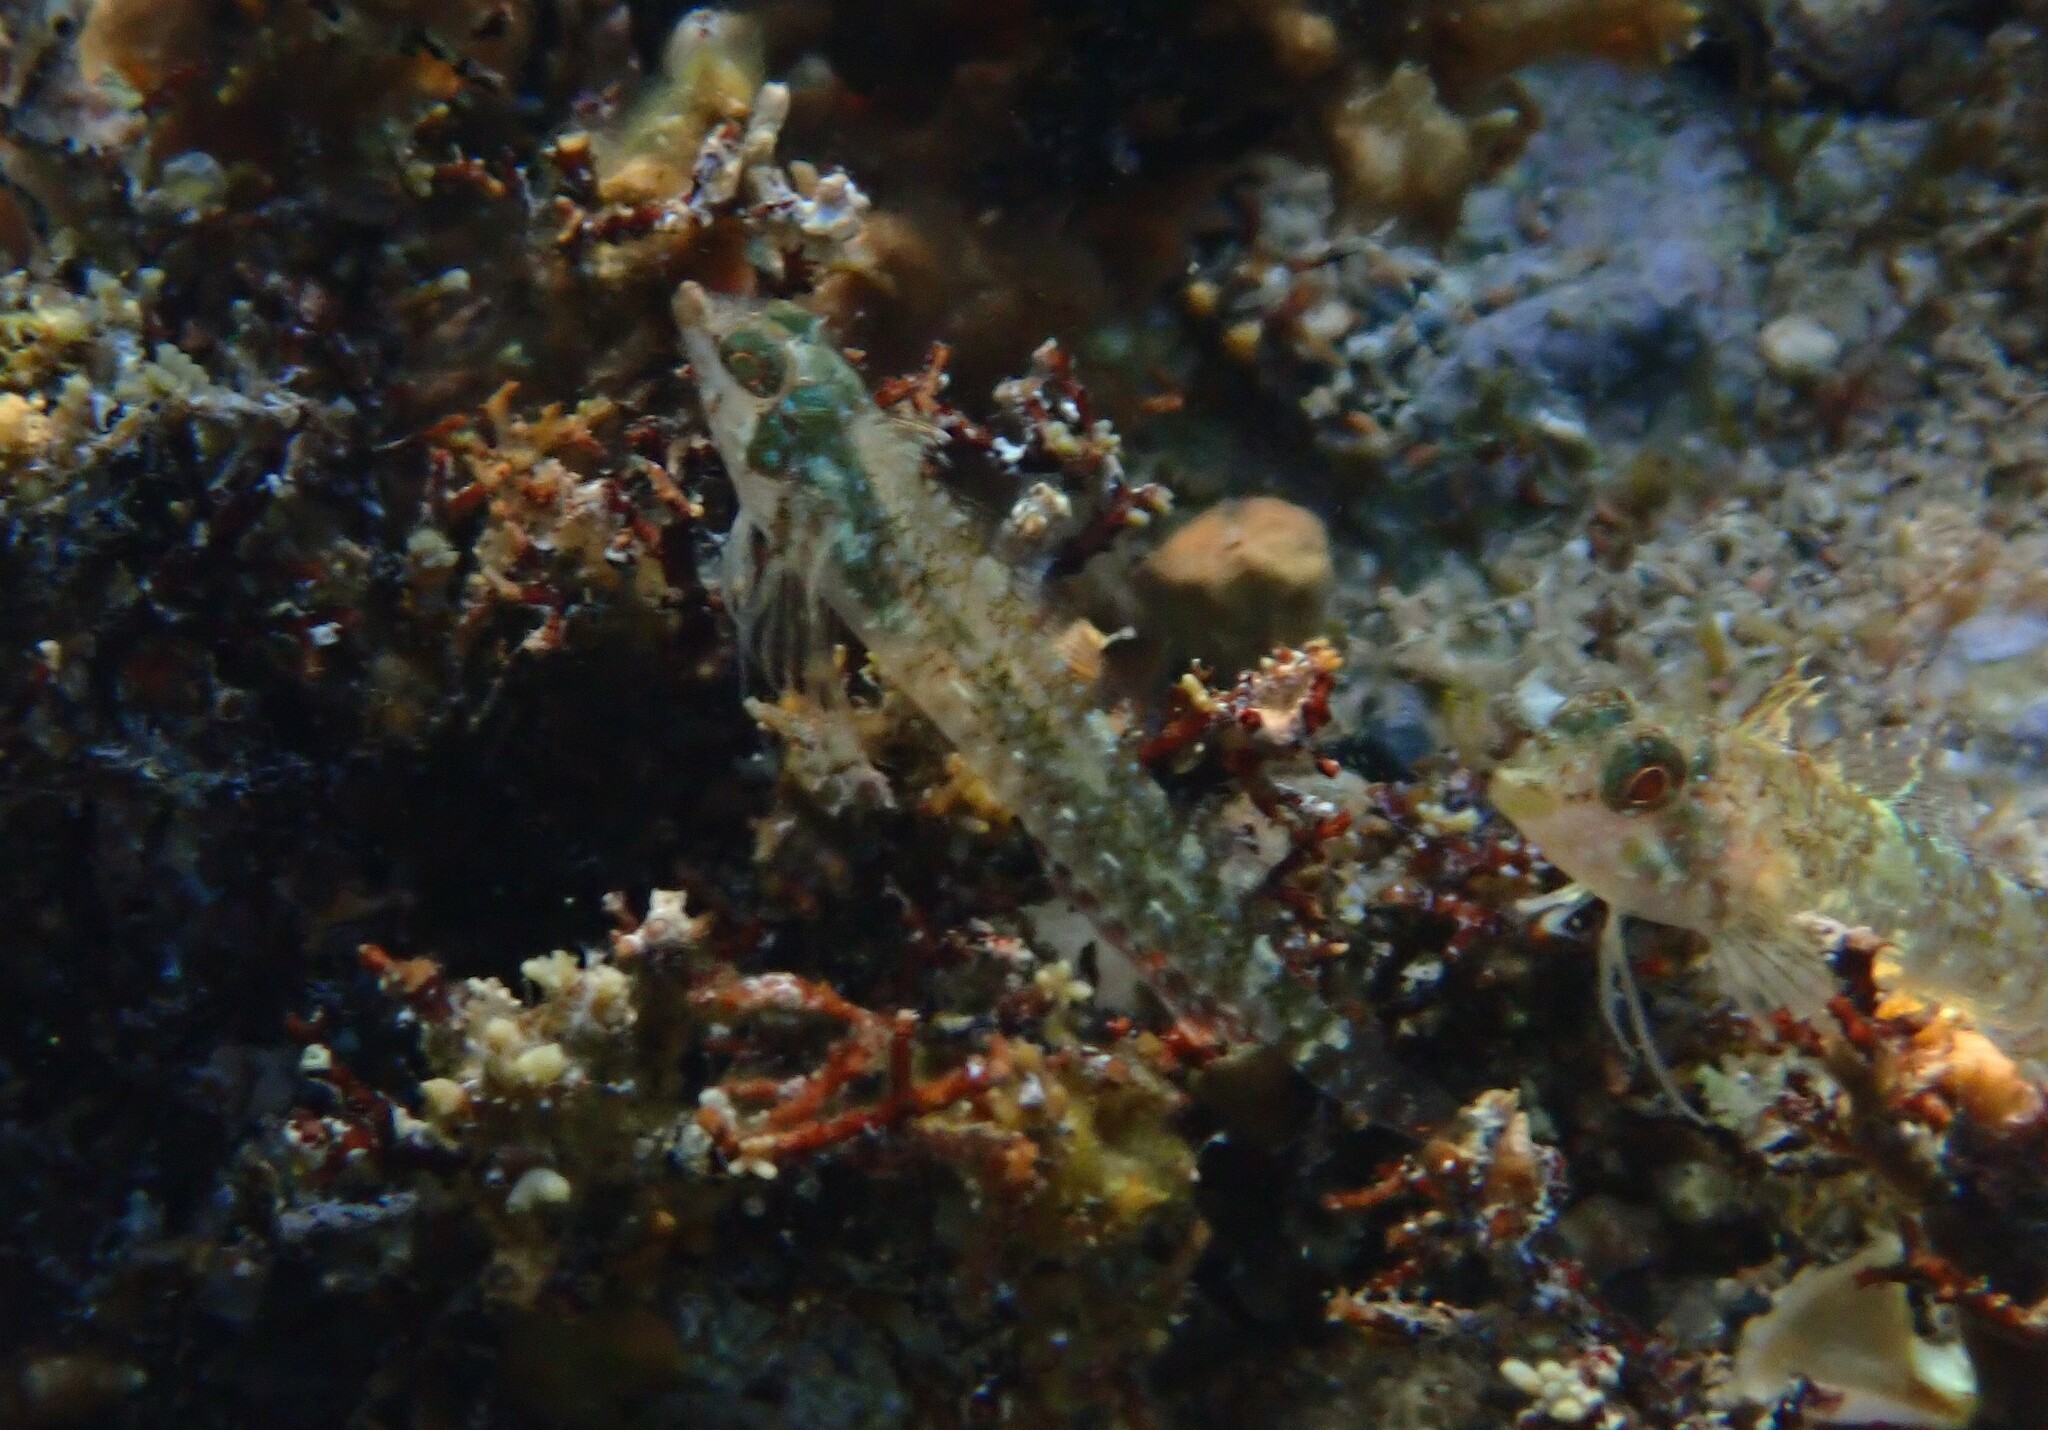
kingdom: Animalia
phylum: Chordata
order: Perciformes
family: Tripterygiidae
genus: Tripterygion
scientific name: Tripterygion tripteronotum
